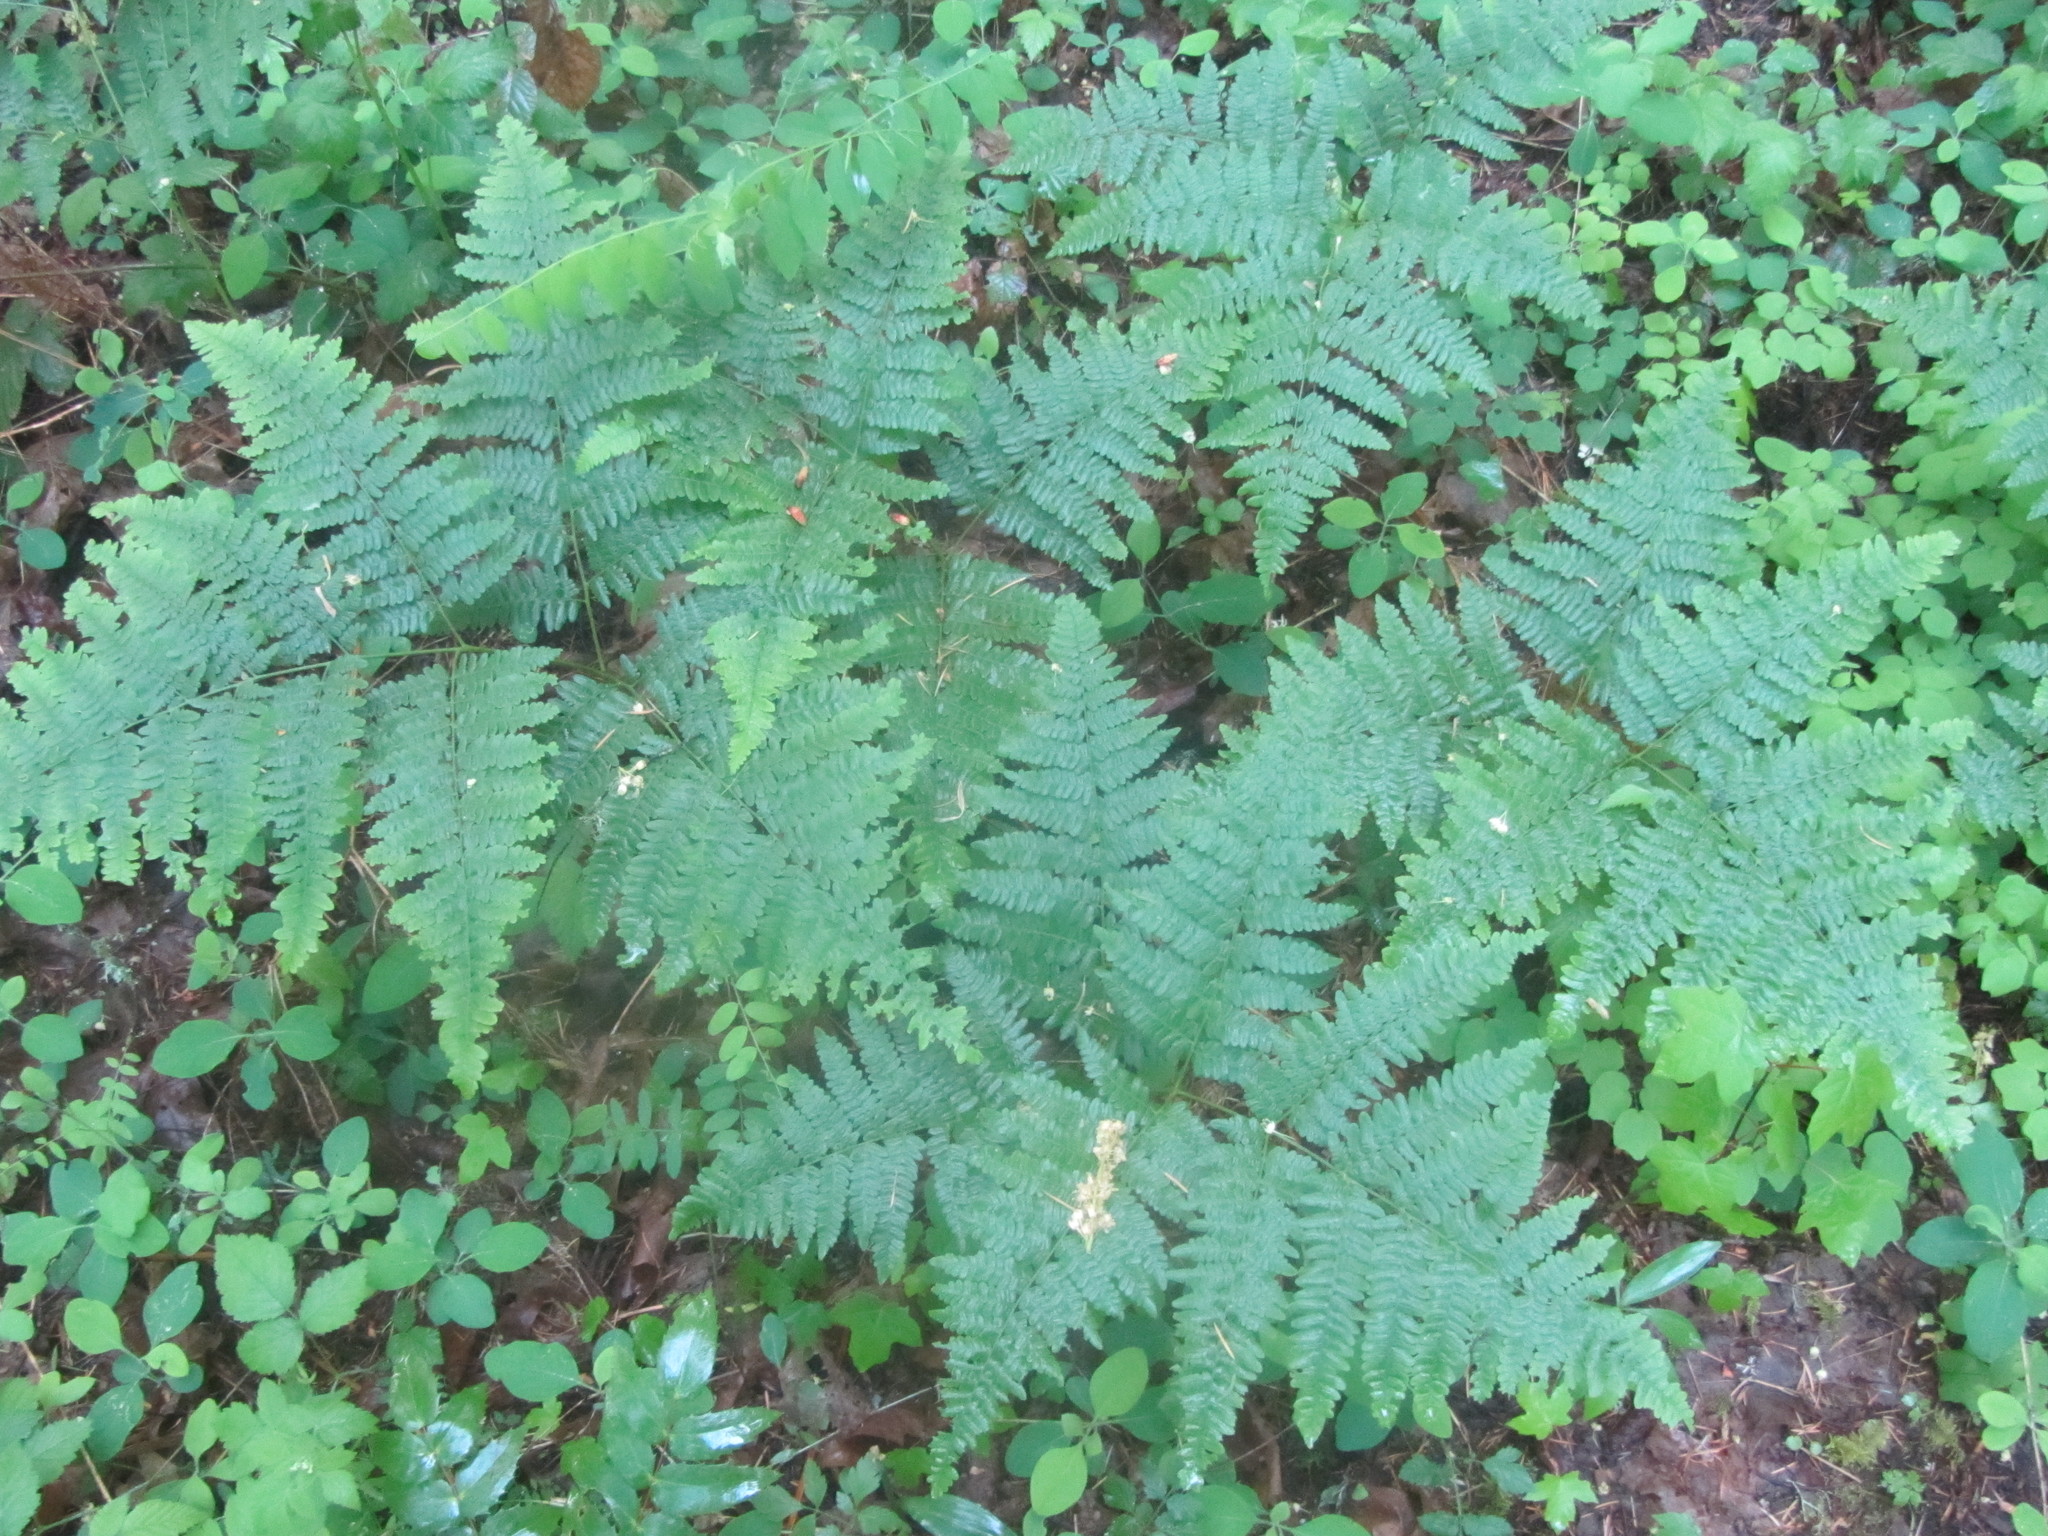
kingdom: Plantae
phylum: Tracheophyta
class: Polypodiopsida
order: Polypodiales
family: Dennstaedtiaceae
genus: Pteridium
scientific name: Pteridium aquilinum
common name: Bracken
